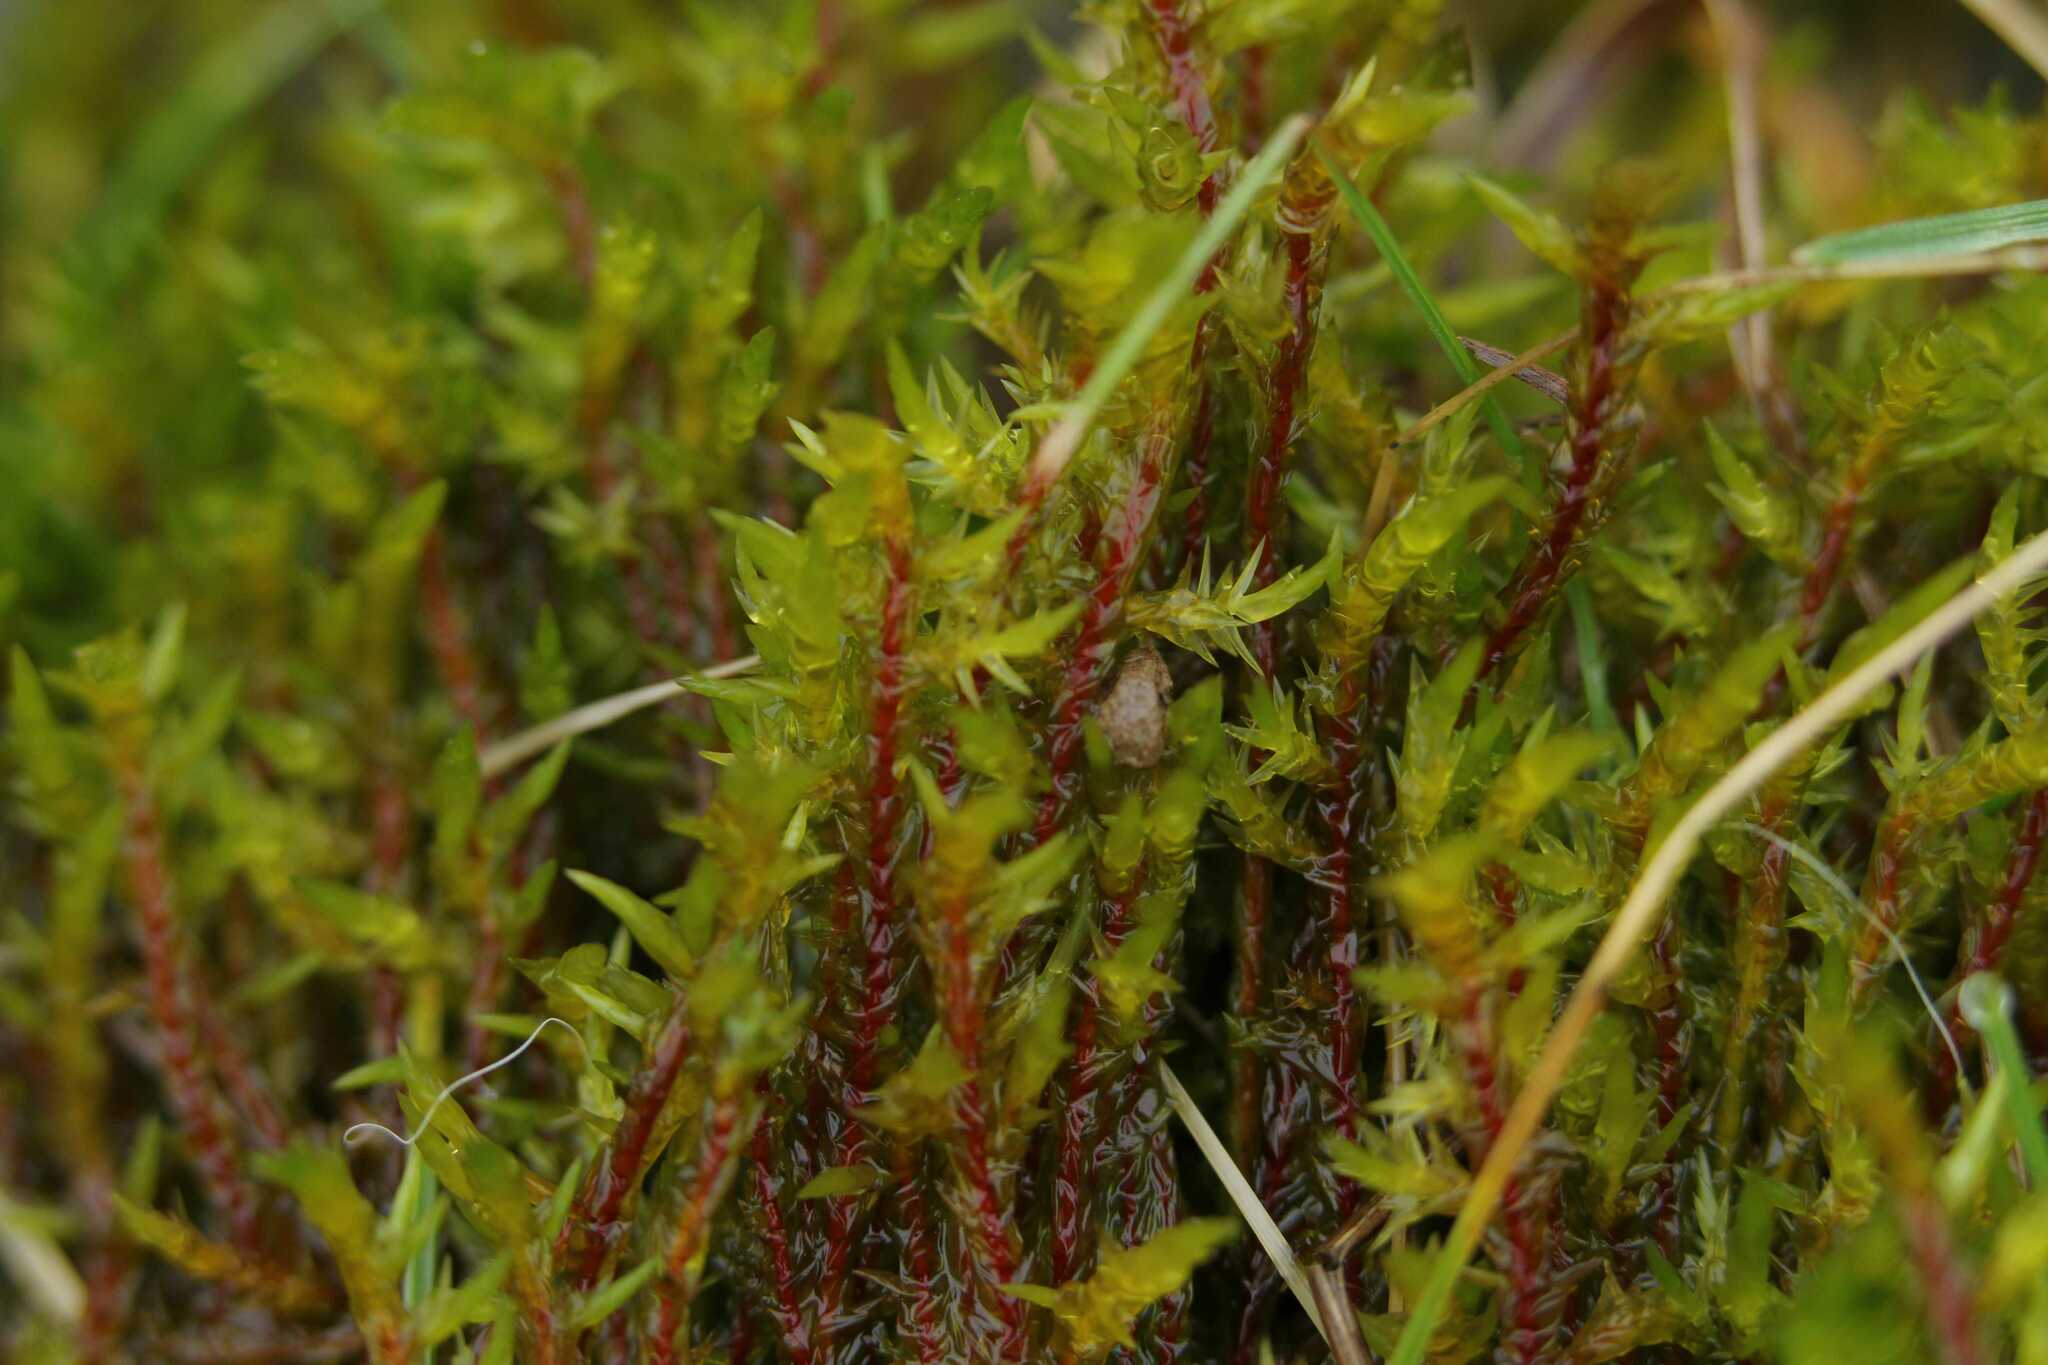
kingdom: Plantae
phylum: Bryophyta
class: Bryopsida
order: Hypnales
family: Pylaisiaceae
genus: Calliergonella
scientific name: Calliergonella cuspidata
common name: Common large wetland moss
